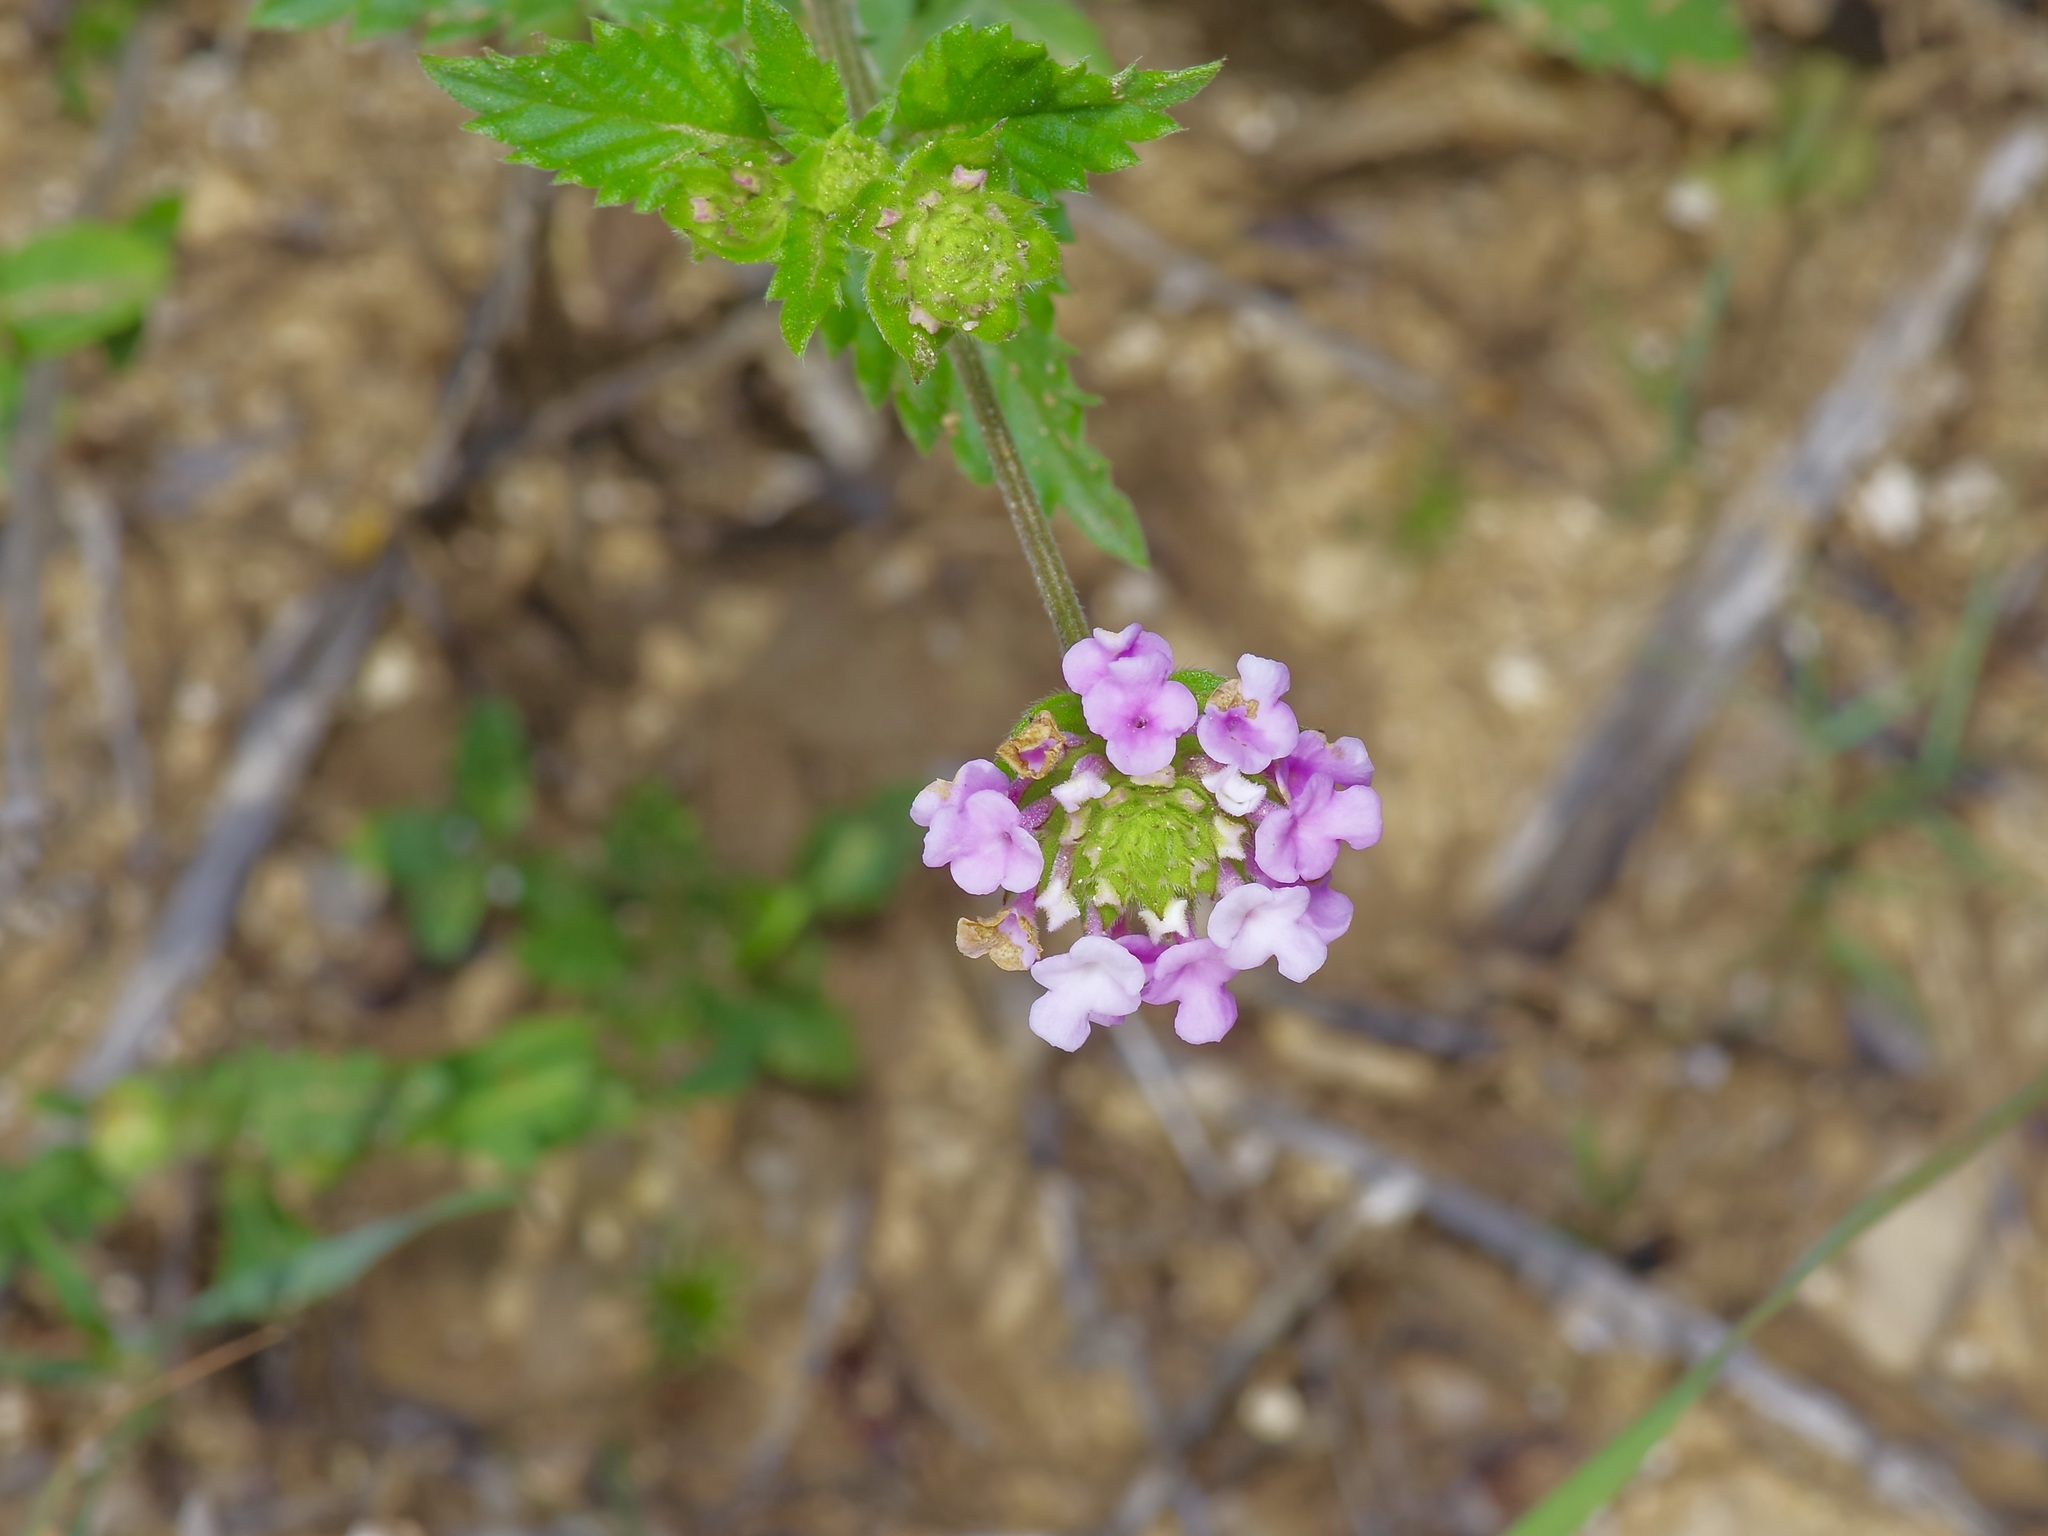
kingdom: Plantae
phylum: Tracheophyta
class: Magnoliopsida
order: Lamiales
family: Verbenaceae
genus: Lantana
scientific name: Lantana achyranthifolia
